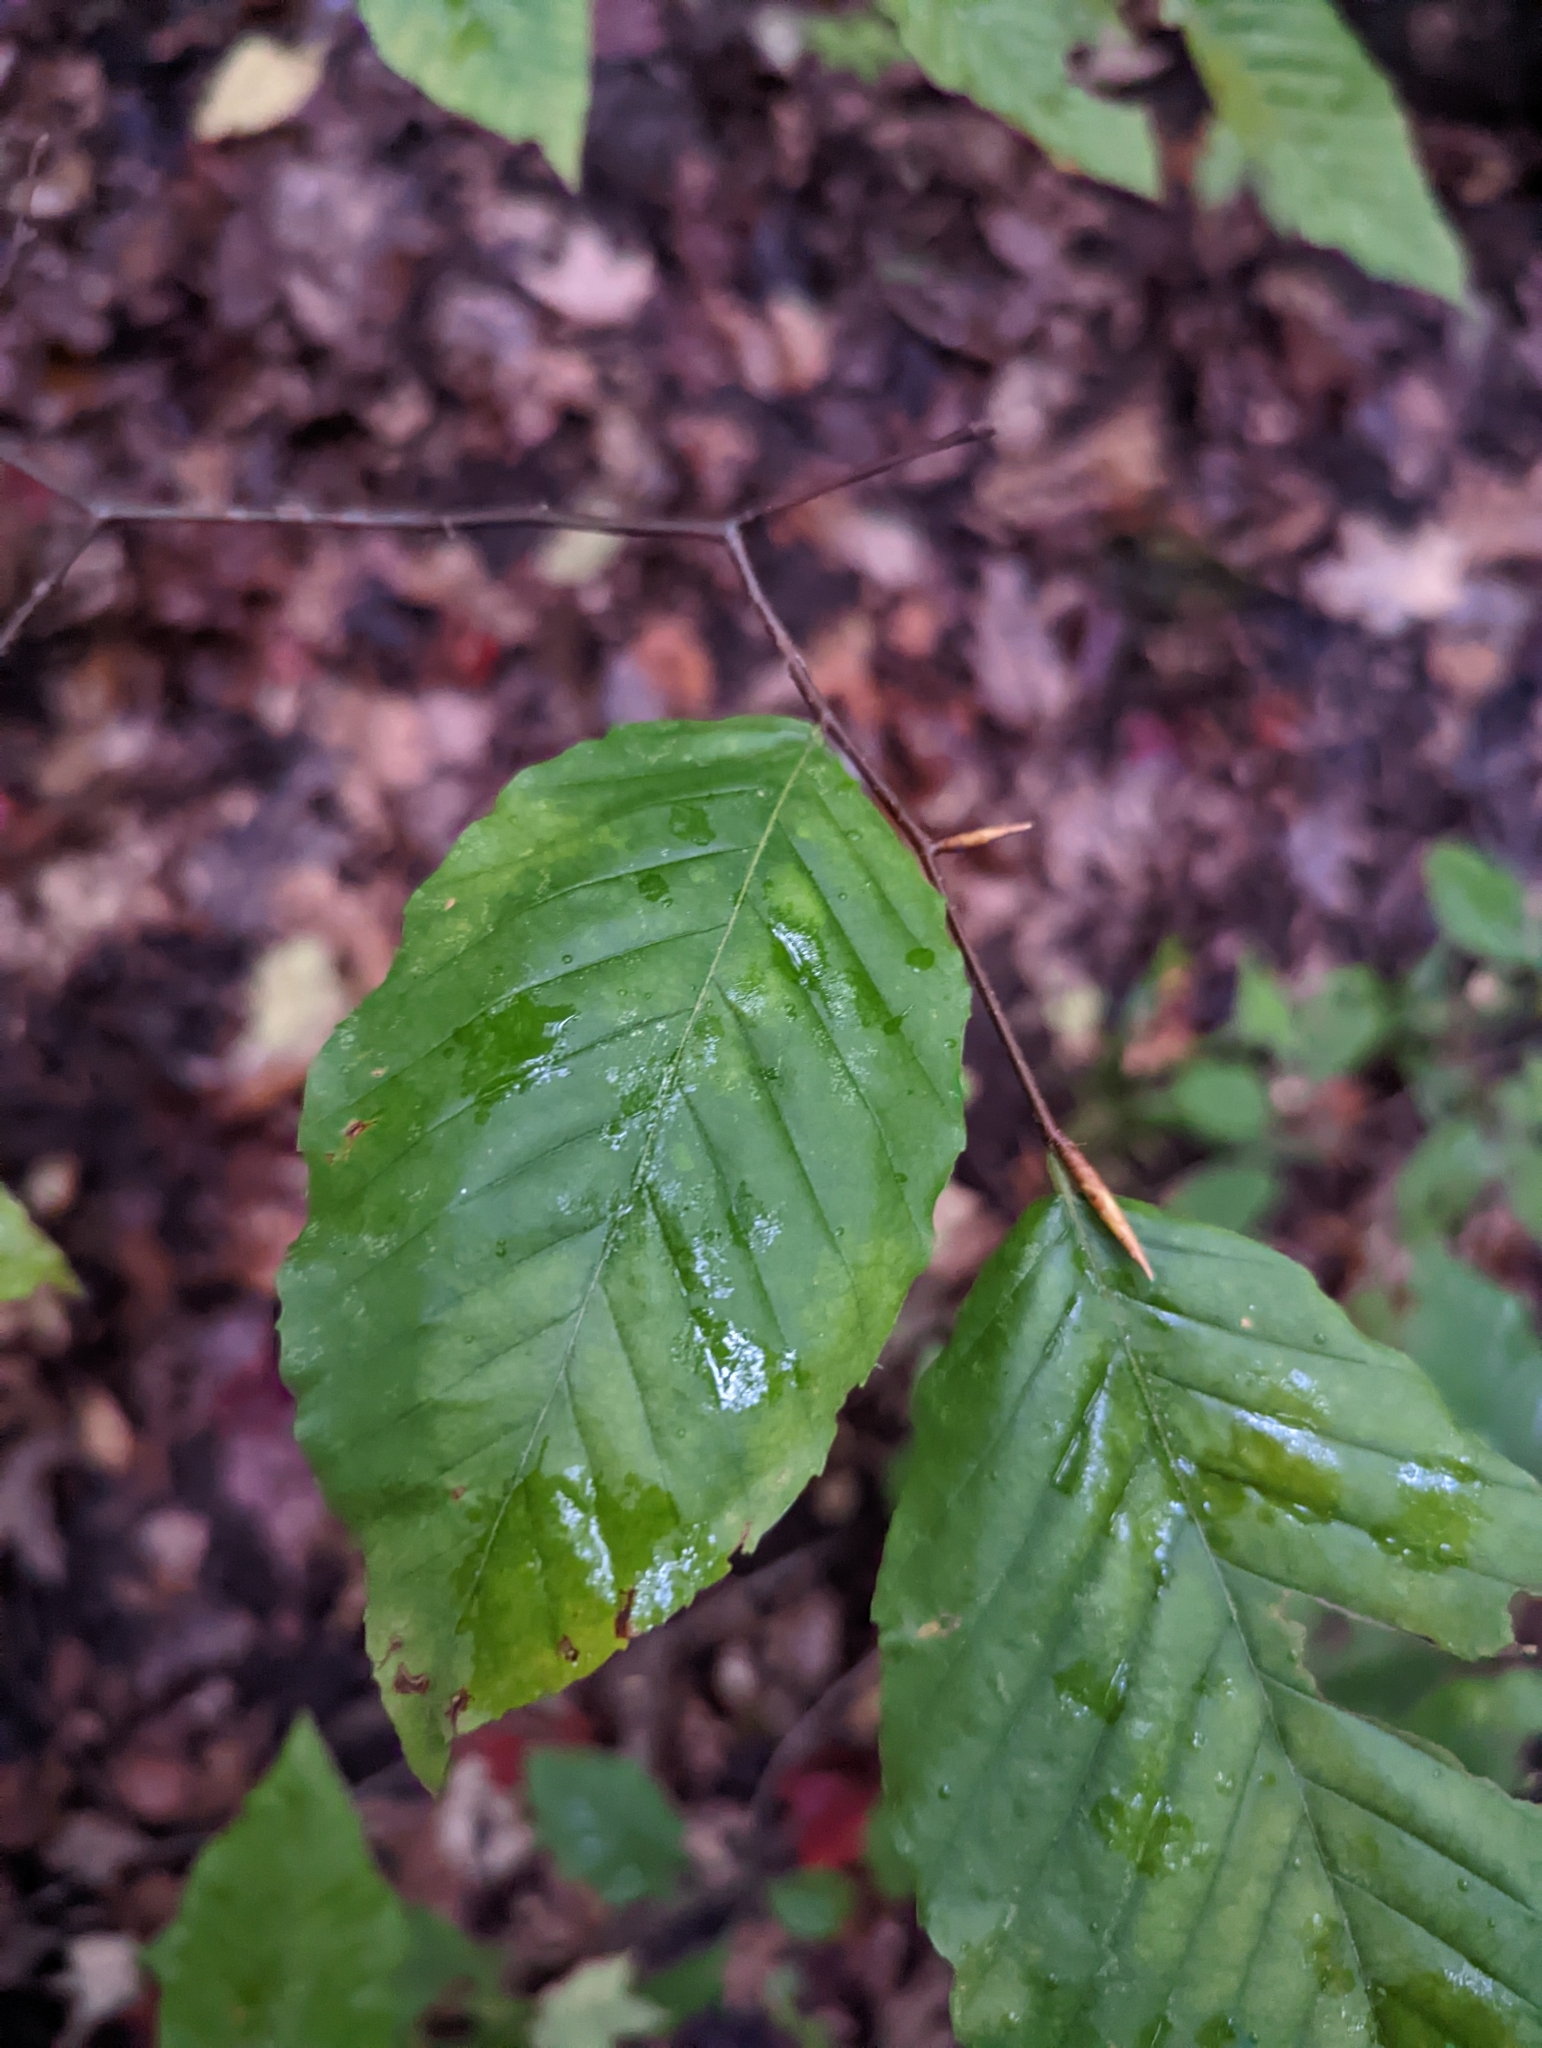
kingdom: Plantae
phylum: Tracheophyta
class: Magnoliopsida
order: Fagales
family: Fagaceae
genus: Fagus
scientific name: Fagus grandifolia
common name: American beech
